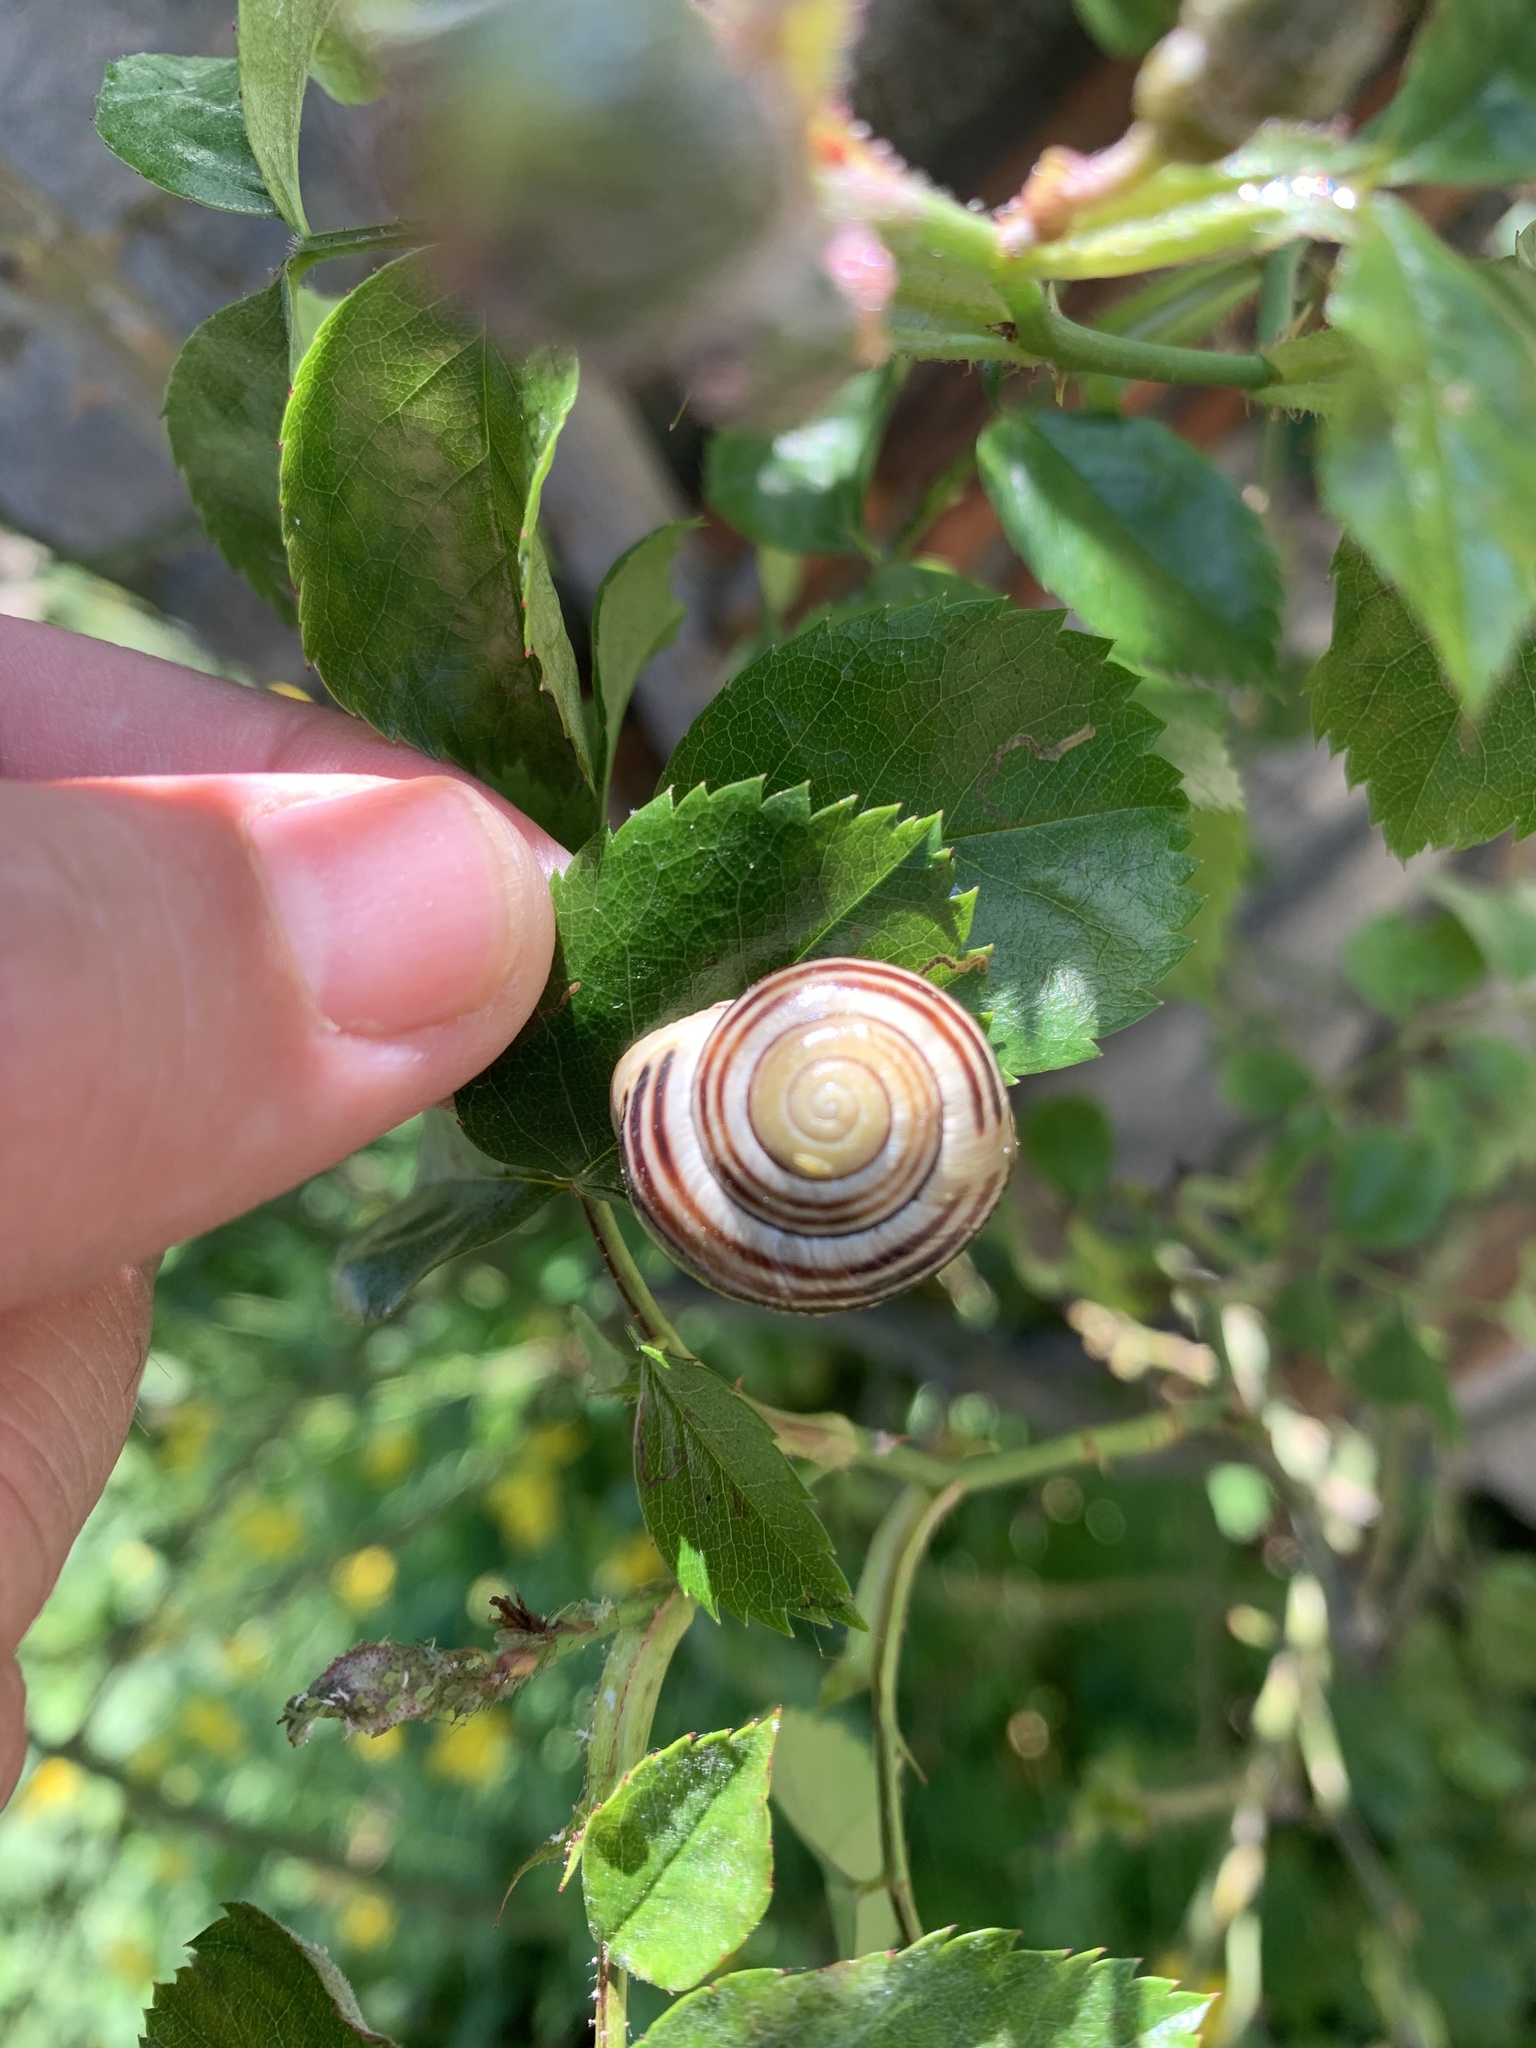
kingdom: Animalia
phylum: Mollusca
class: Gastropoda
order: Stylommatophora
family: Helicidae
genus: Cepaea
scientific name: Cepaea hortensis
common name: White-lip gardensnail
